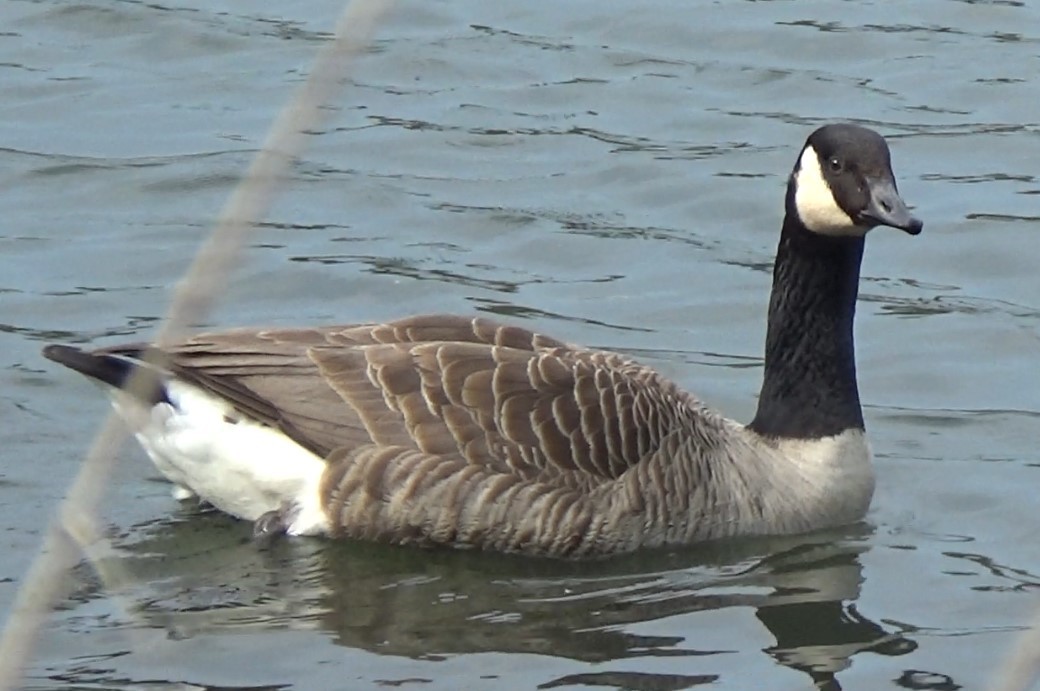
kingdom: Animalia
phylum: Chordata
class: Aves
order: Anseriformes
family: Anatidae
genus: Branta
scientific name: Branta canadensis
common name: Canada goose
